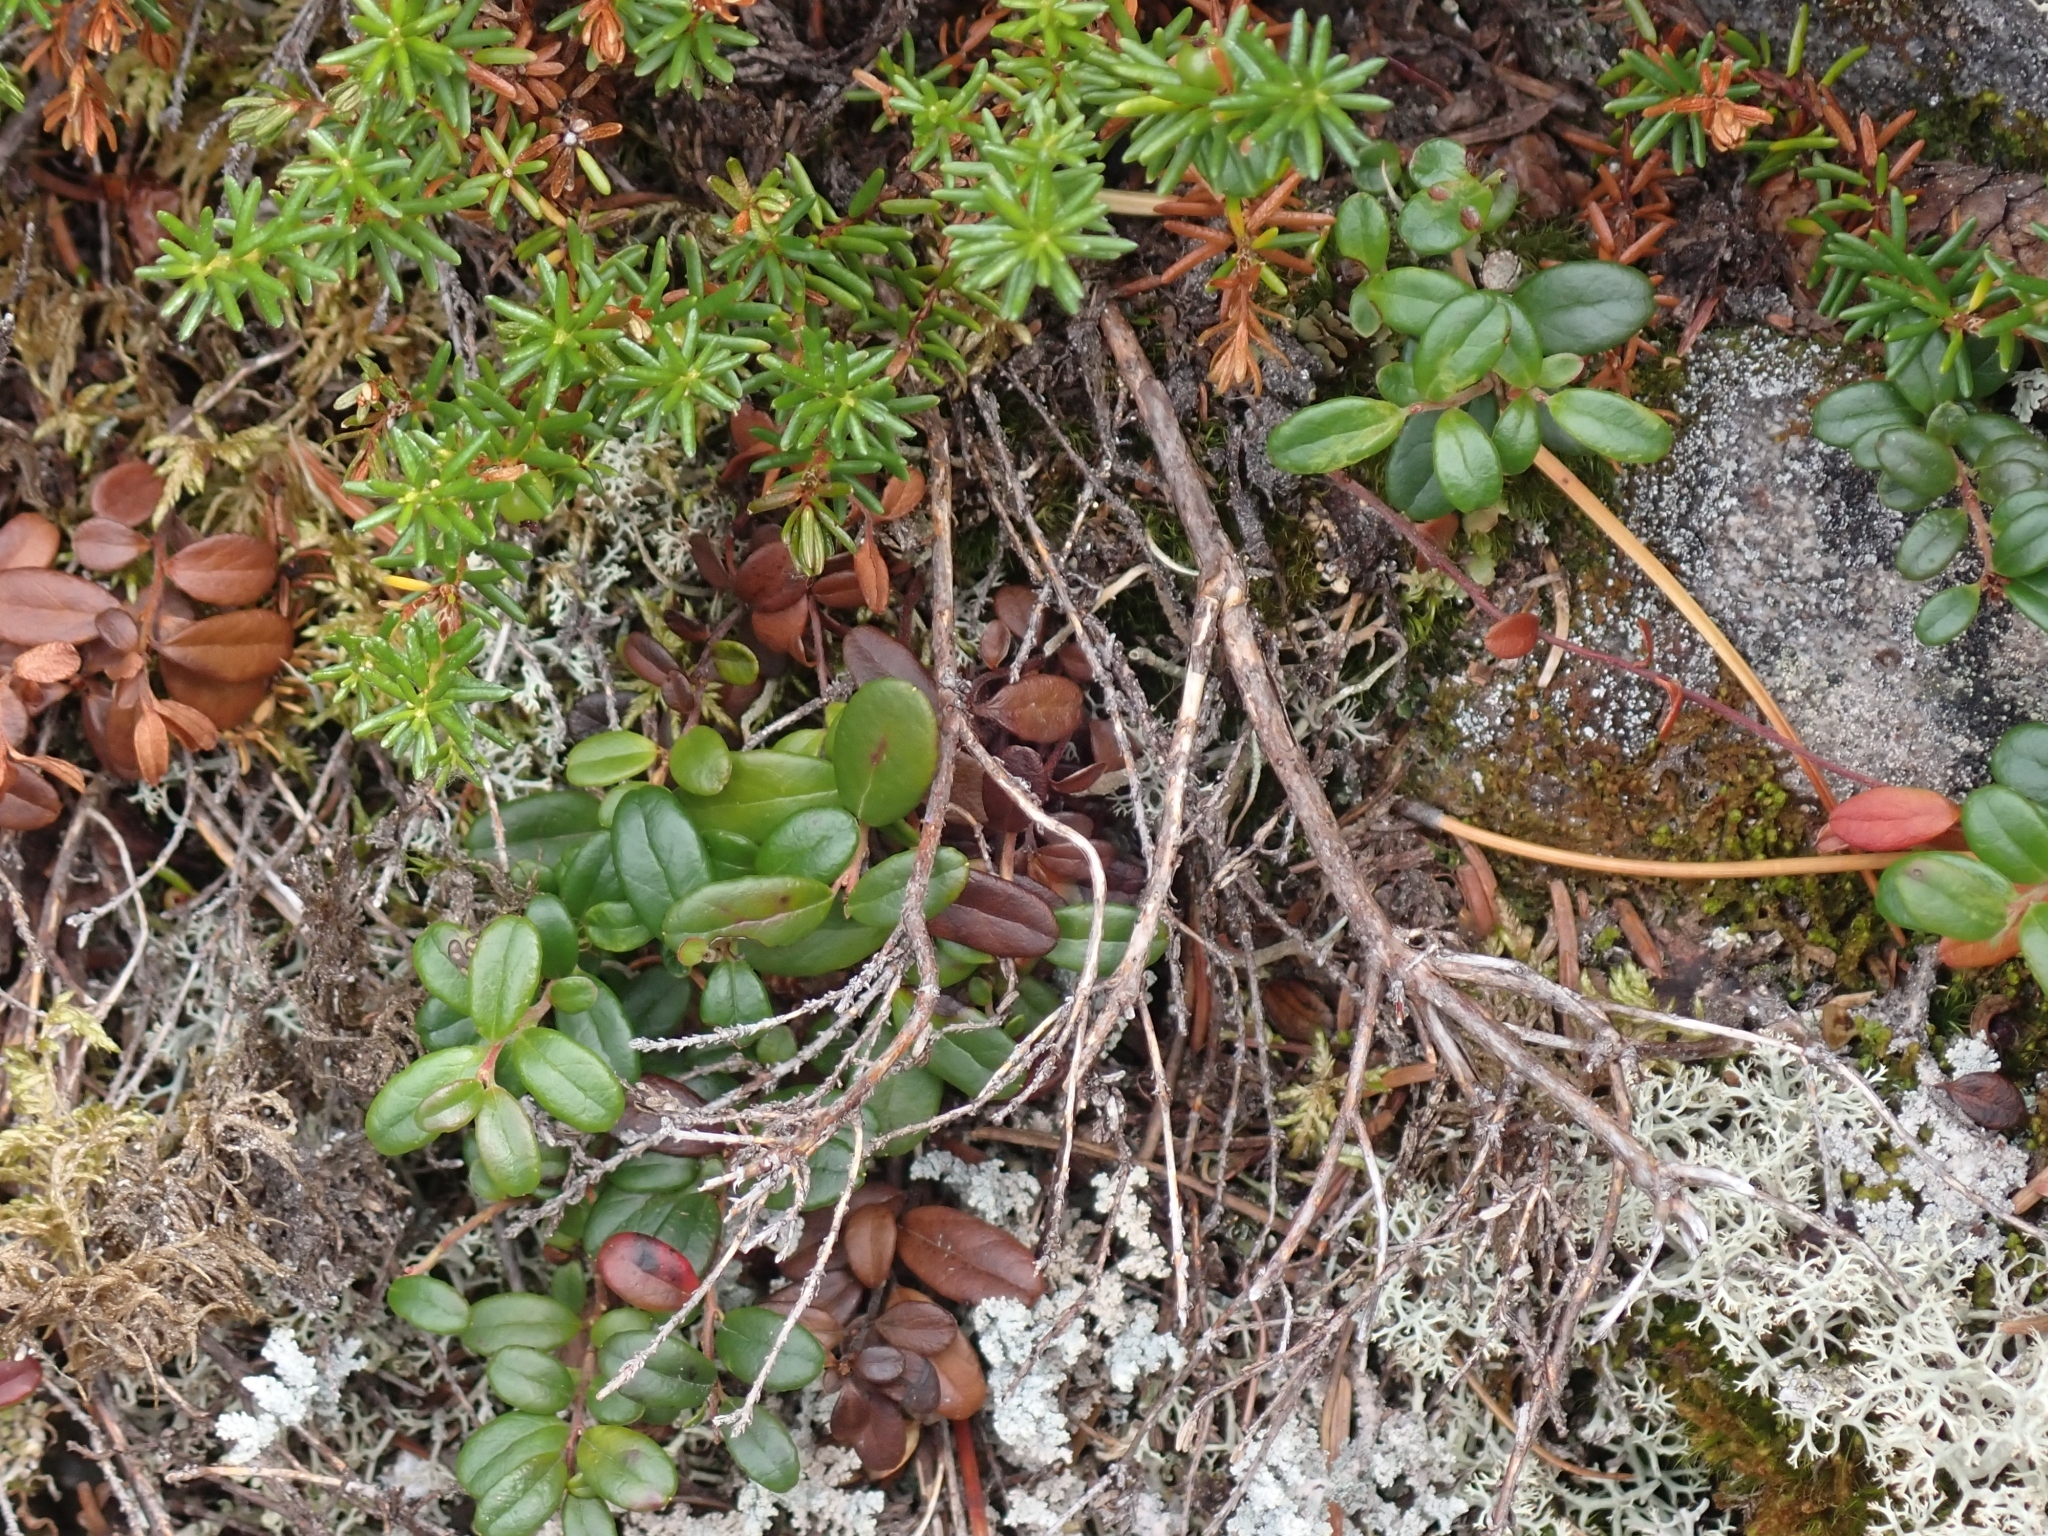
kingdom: Plantae
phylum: Tracheophyta
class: Magnoliopsida
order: Ericales
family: Ericaceae
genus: Vaccinium
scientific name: Vaccinium vitis-idaea
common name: Cowberry
